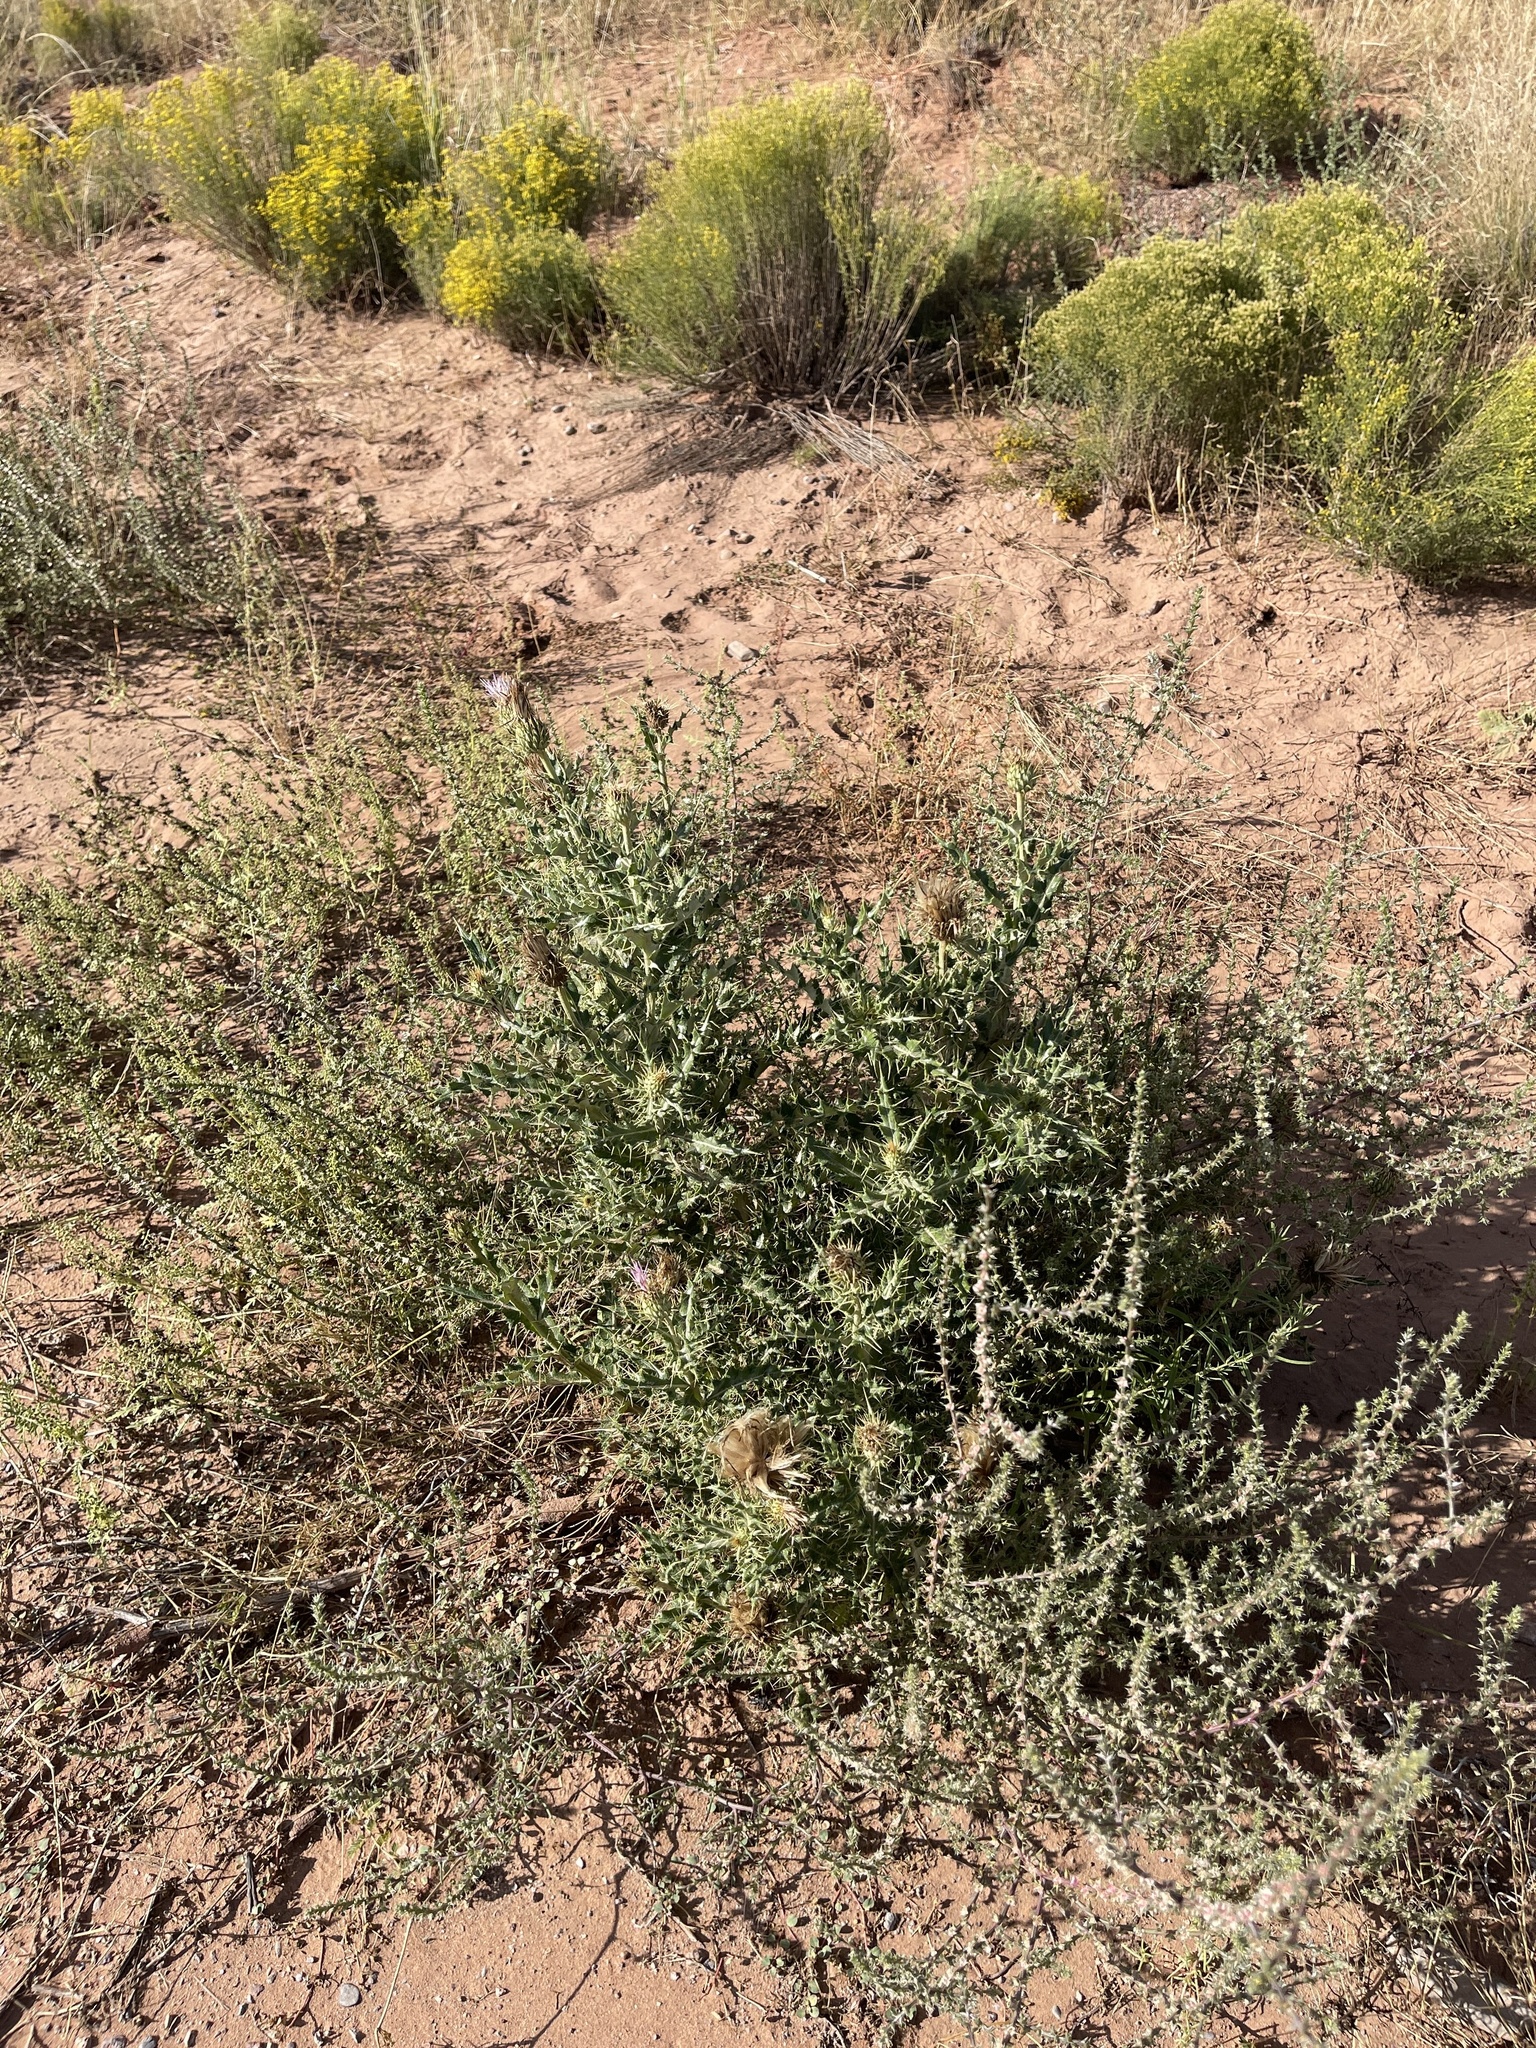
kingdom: Plantae
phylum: Tracheophyta
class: Magnoliopsida
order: Asterales
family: Asteraceae
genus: Cirsium
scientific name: Cirsium ochrocentrum
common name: Yellow-spine thistle
